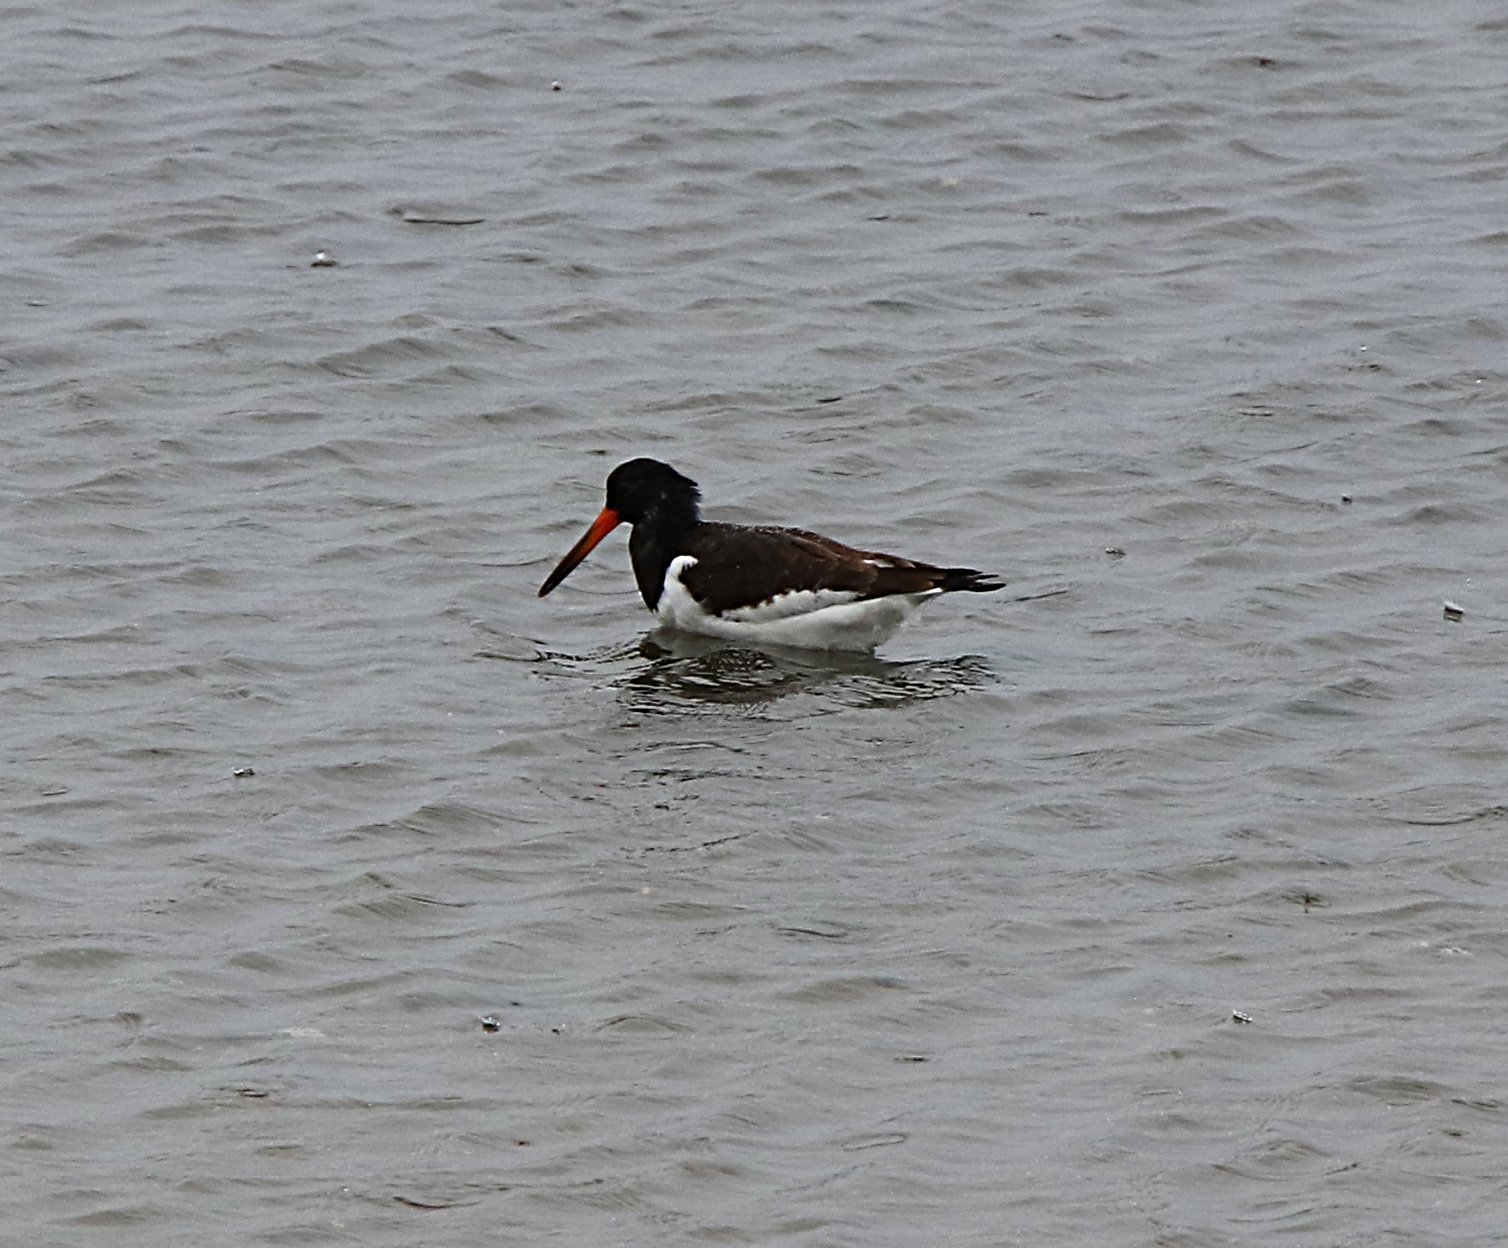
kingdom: Animalia
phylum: Chordata
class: Aves
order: Charadriiformes
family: Haematopodidae
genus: Haematopus
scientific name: Haematopus ostralegus
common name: Eurasian oystercatcher
